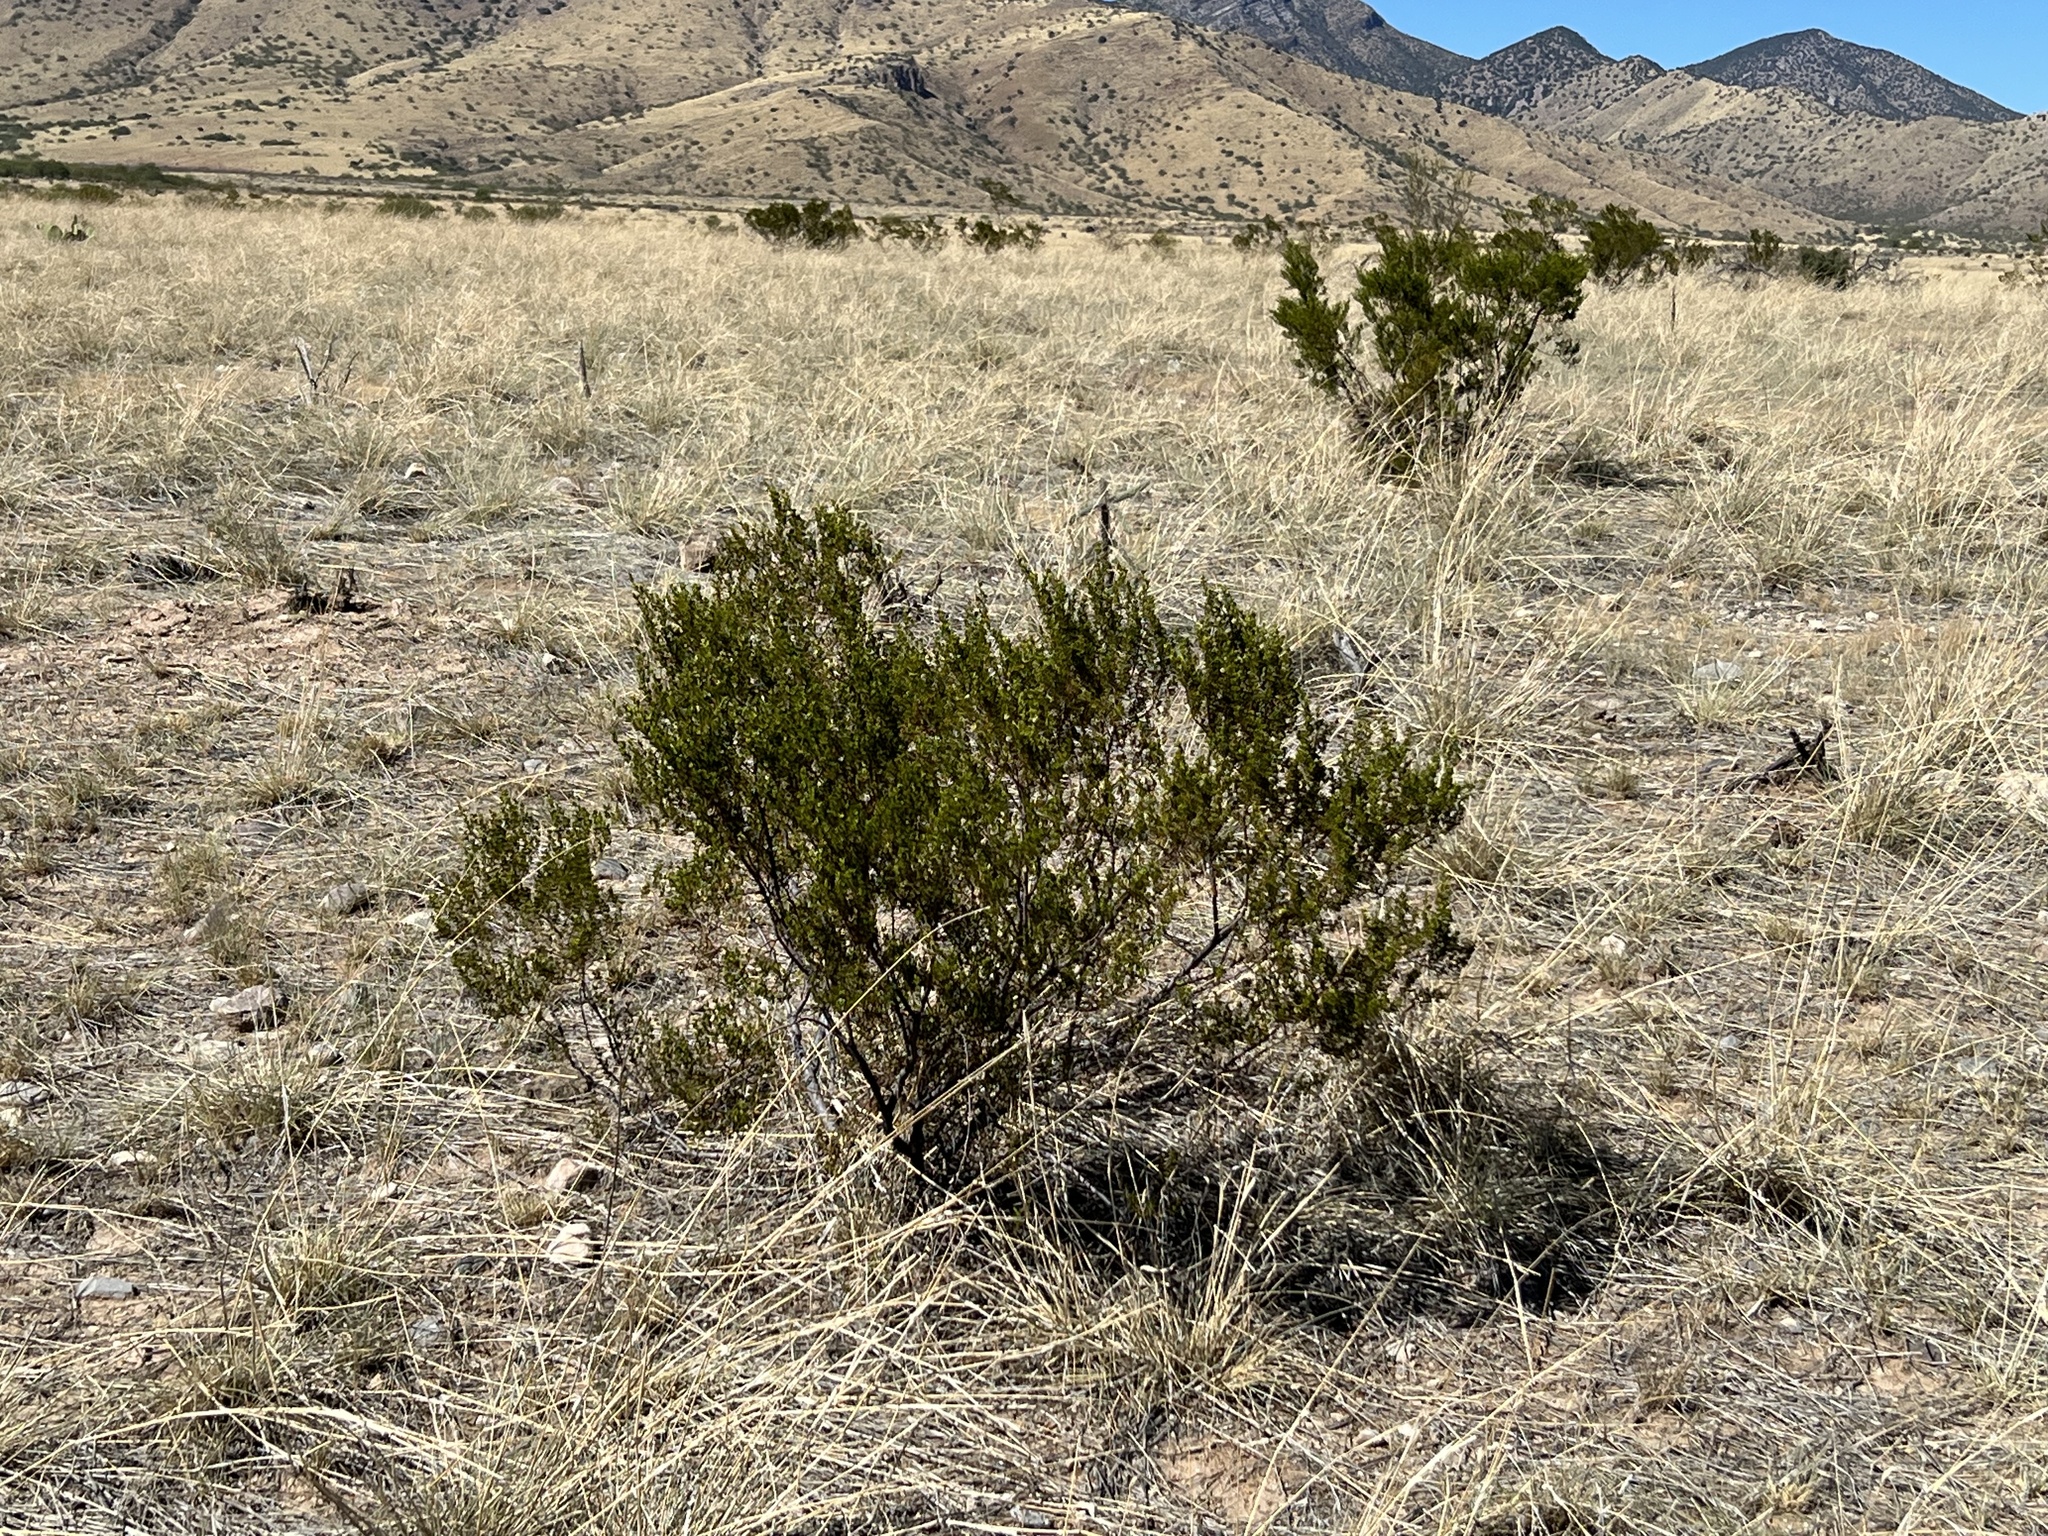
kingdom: Plantae
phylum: Tracheophyta
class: Magnoliopsida
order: Zygophyllales
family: Zygophyllaceae
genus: Larrea
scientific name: Larrea tridentata
